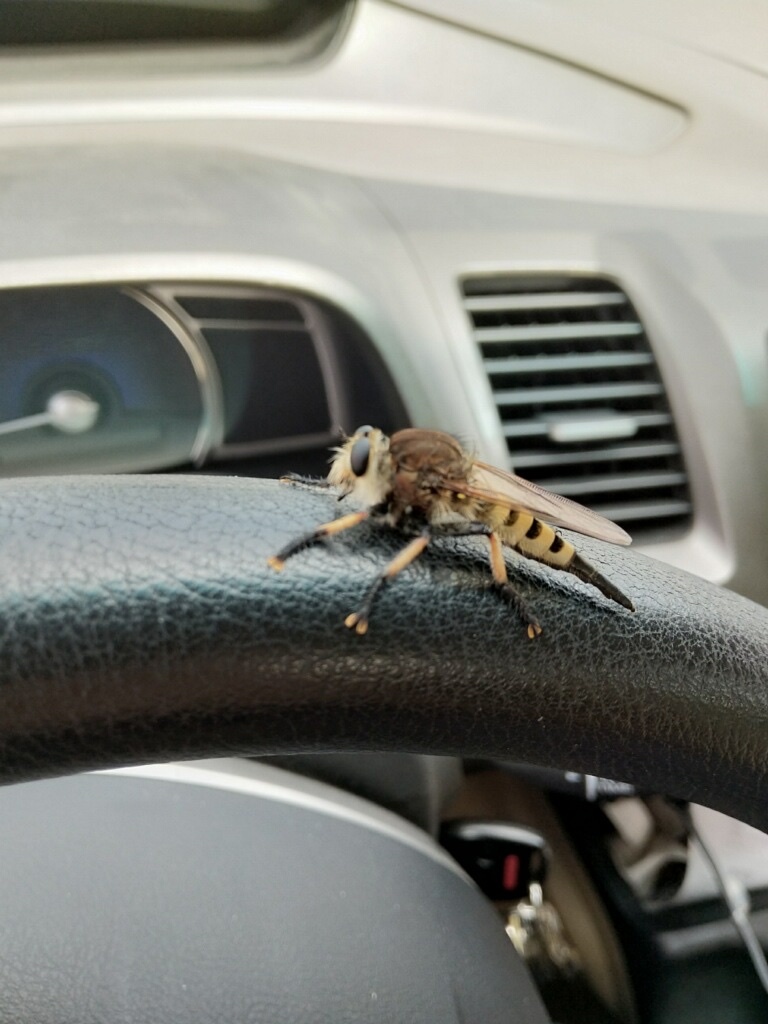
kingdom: Animalia
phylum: Arthropoda
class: Insecta
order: Diptera
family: Asilidae
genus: Promachus
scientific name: Promachus rufipes
